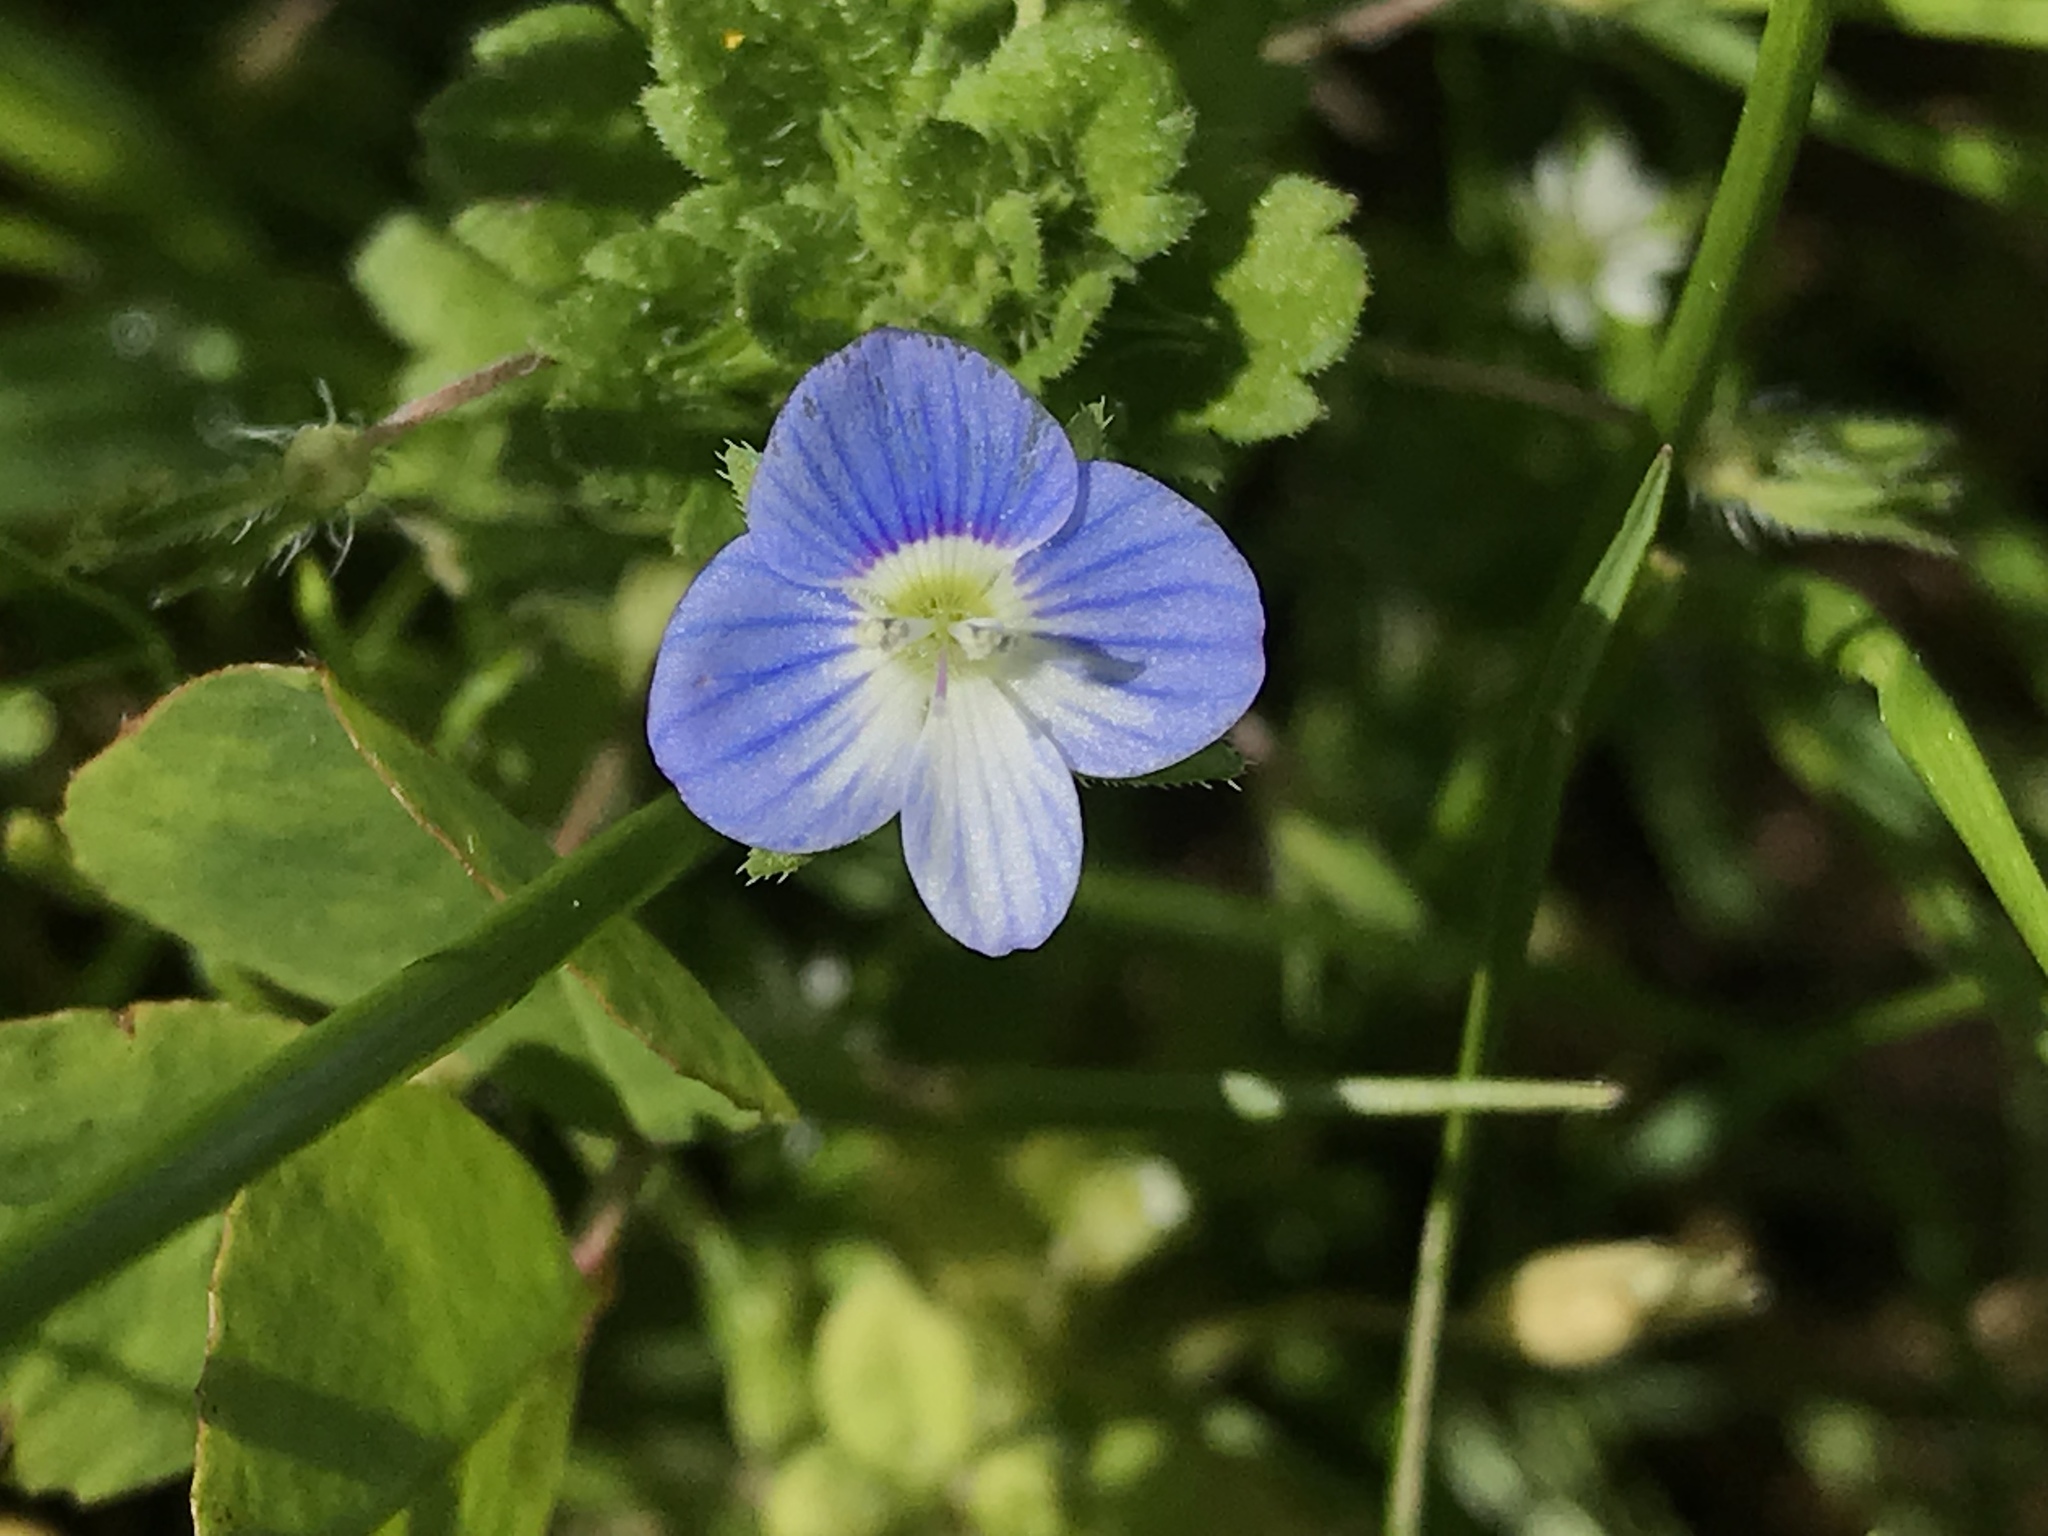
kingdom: Plantae
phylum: Tracheophyta
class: Magnoliopsida
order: Lamiales
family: Plantaginaceae
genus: Veronica
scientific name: Veronica persica
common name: Common field-speedwell
